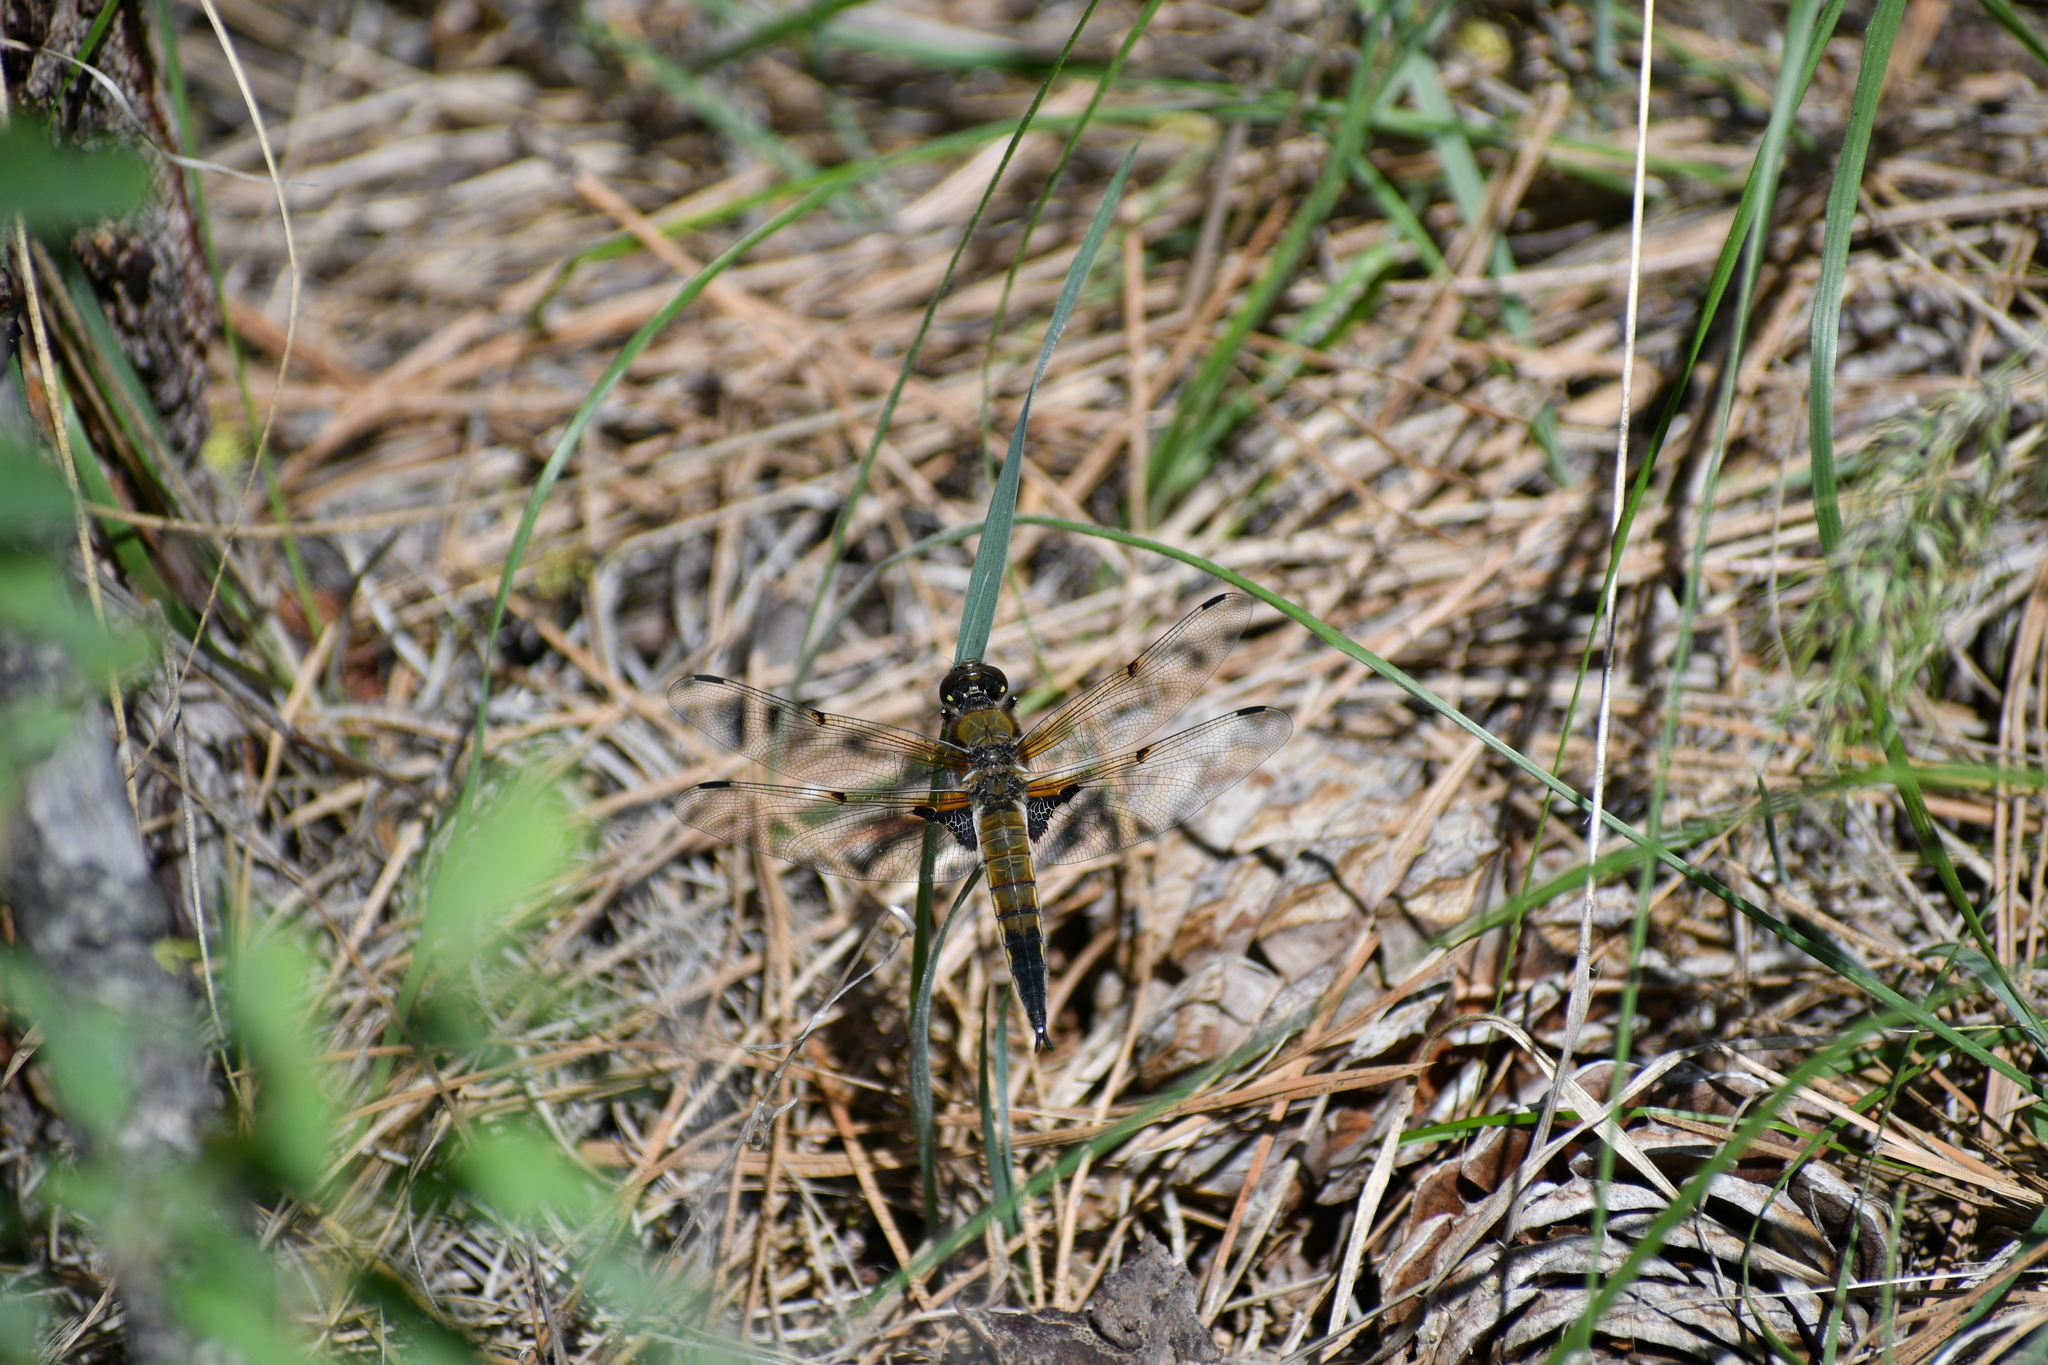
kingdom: Animalia
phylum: Arthropoda
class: Insecta
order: Odonata
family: Libellulidae
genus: Libellula
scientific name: Libellula quadrimaculata
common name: Four-spotted chaser
